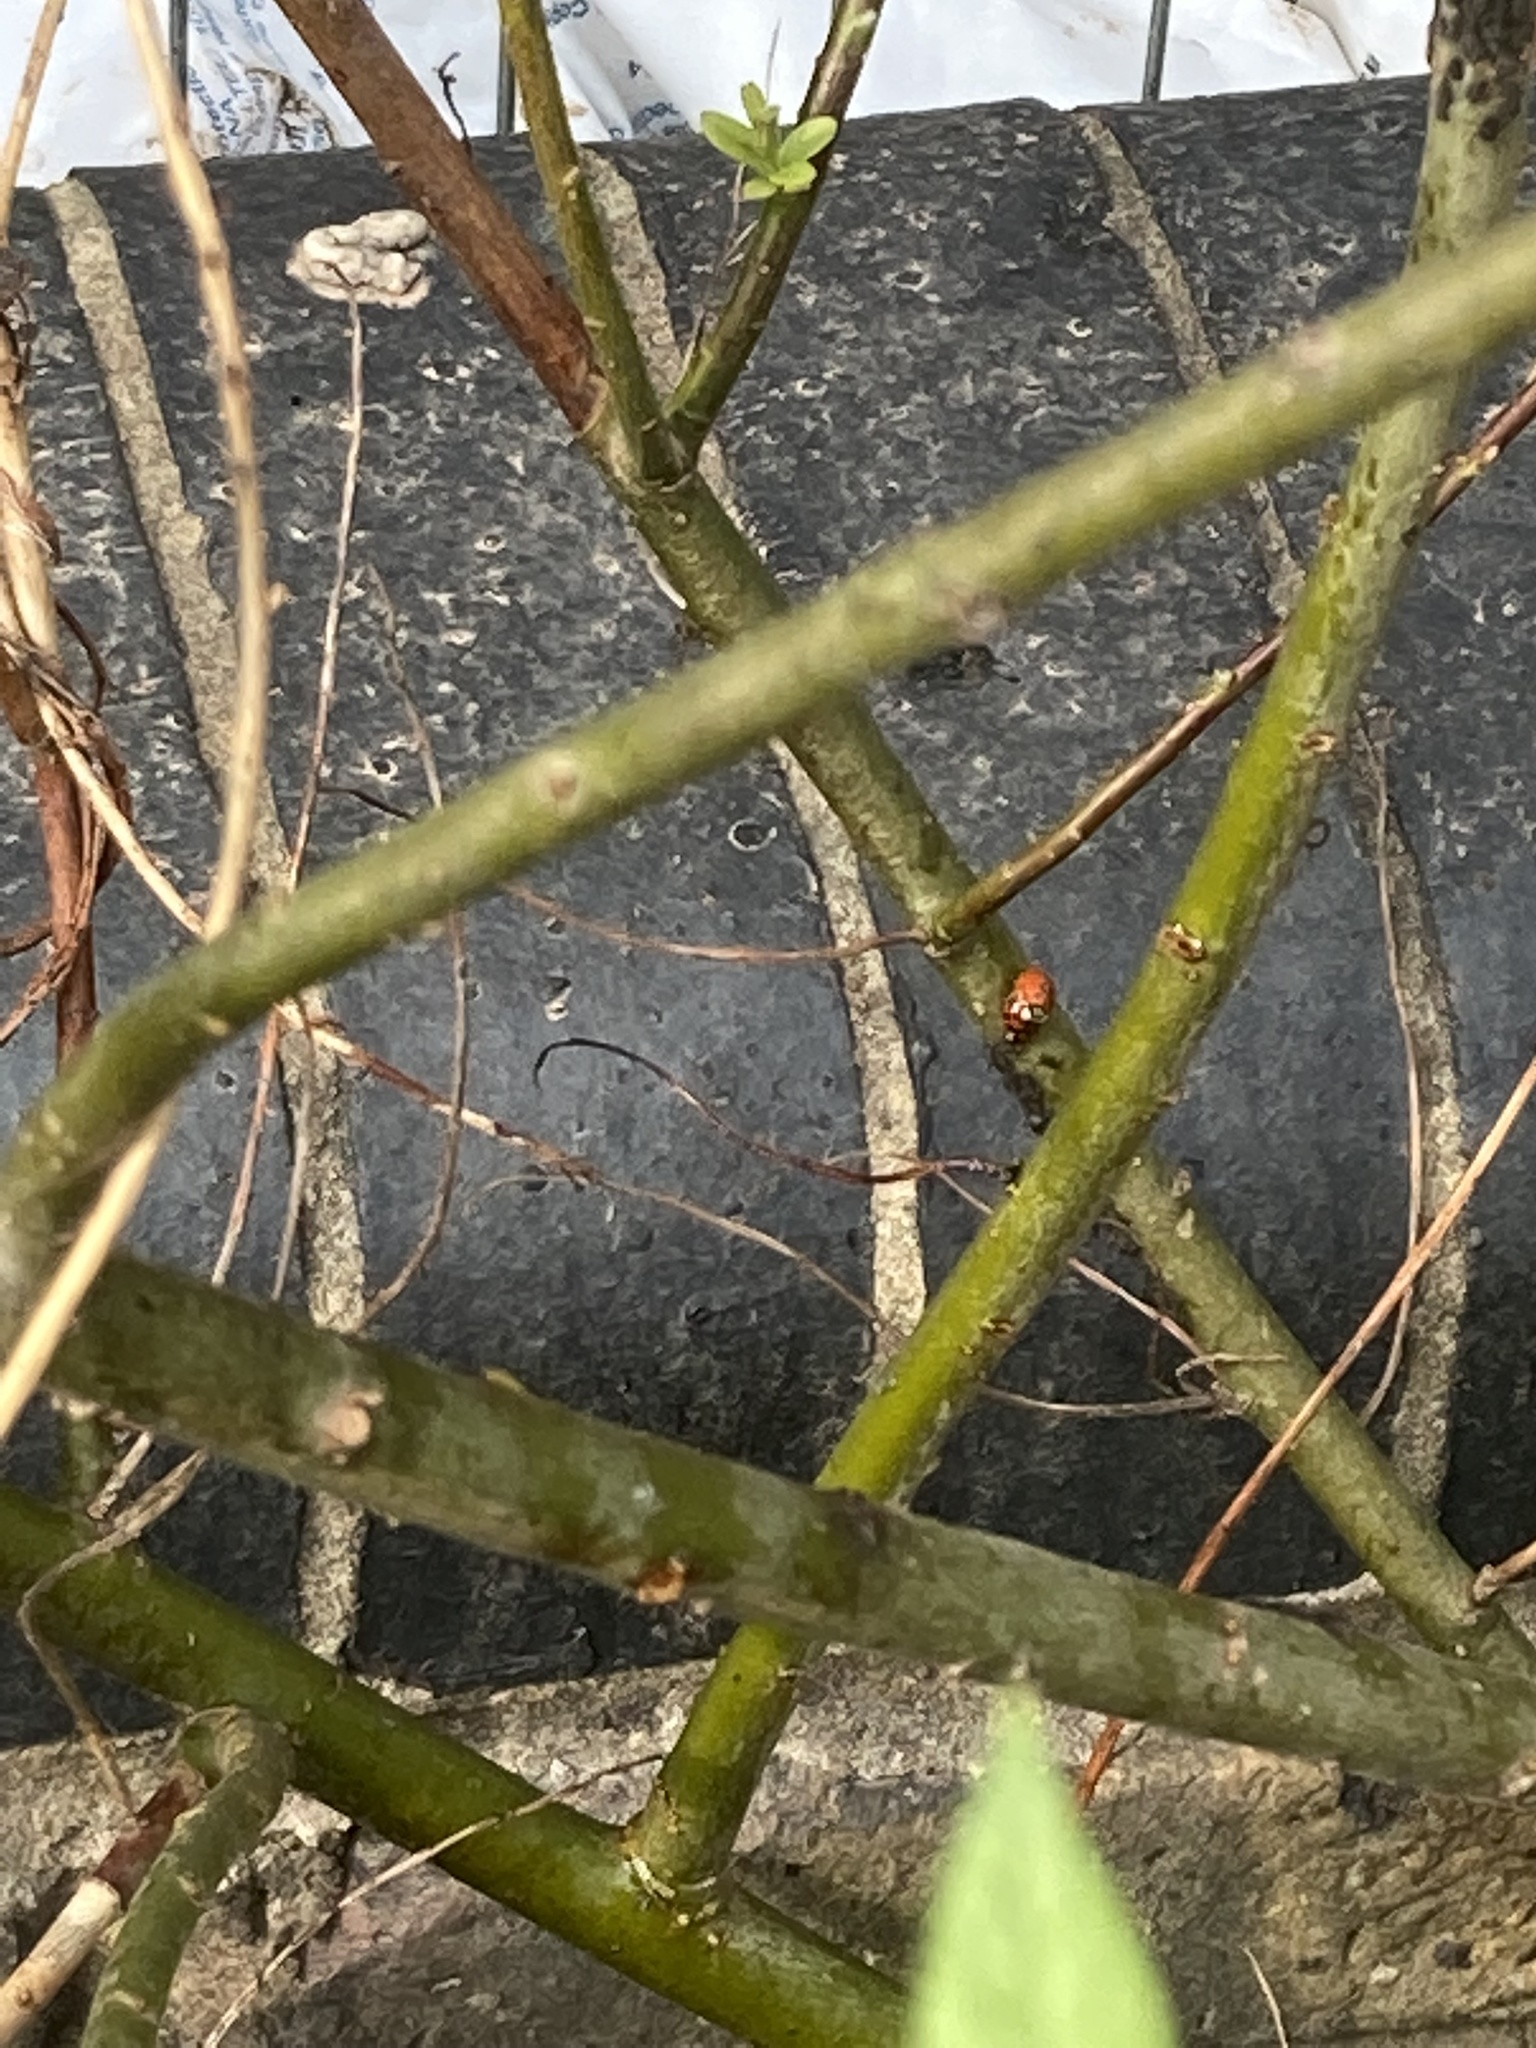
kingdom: Animalia
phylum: Arthropoda
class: Insecta
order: Coleoptera
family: Coccinellidae
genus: Harmonia
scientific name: Harmonia axyridis
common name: Harlequin ladybird
